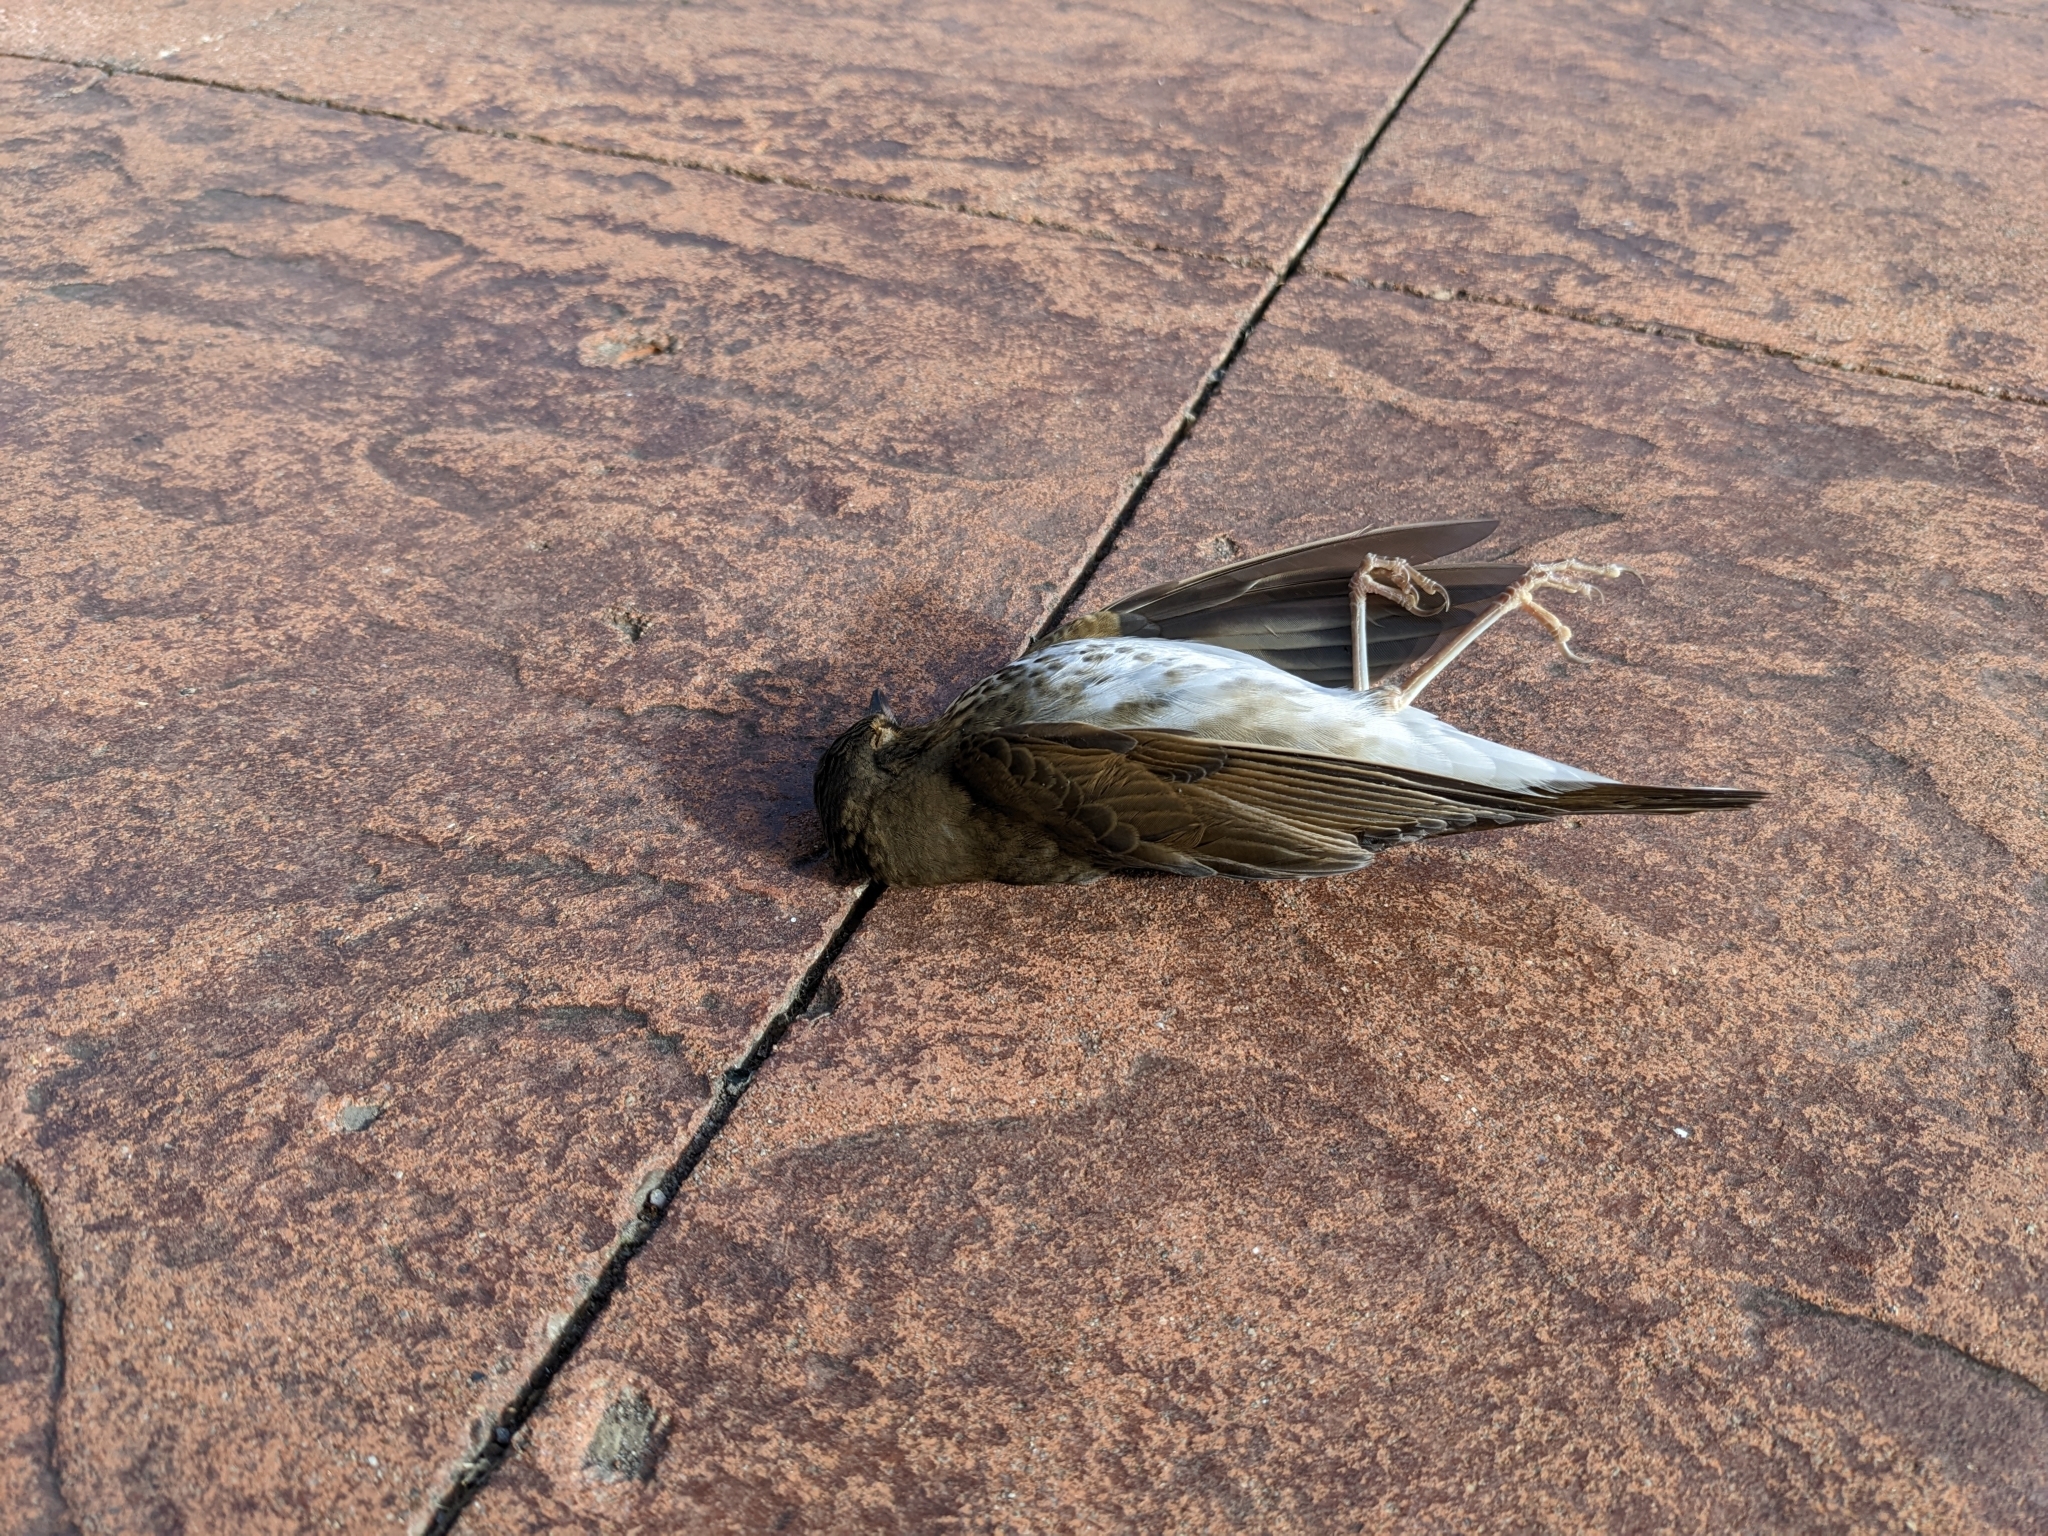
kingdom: Animalia
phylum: Chordata
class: Aves
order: Passeriformes
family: Turdidae
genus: Catharus
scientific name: Catharus ustulatus
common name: Swainson's thrush
